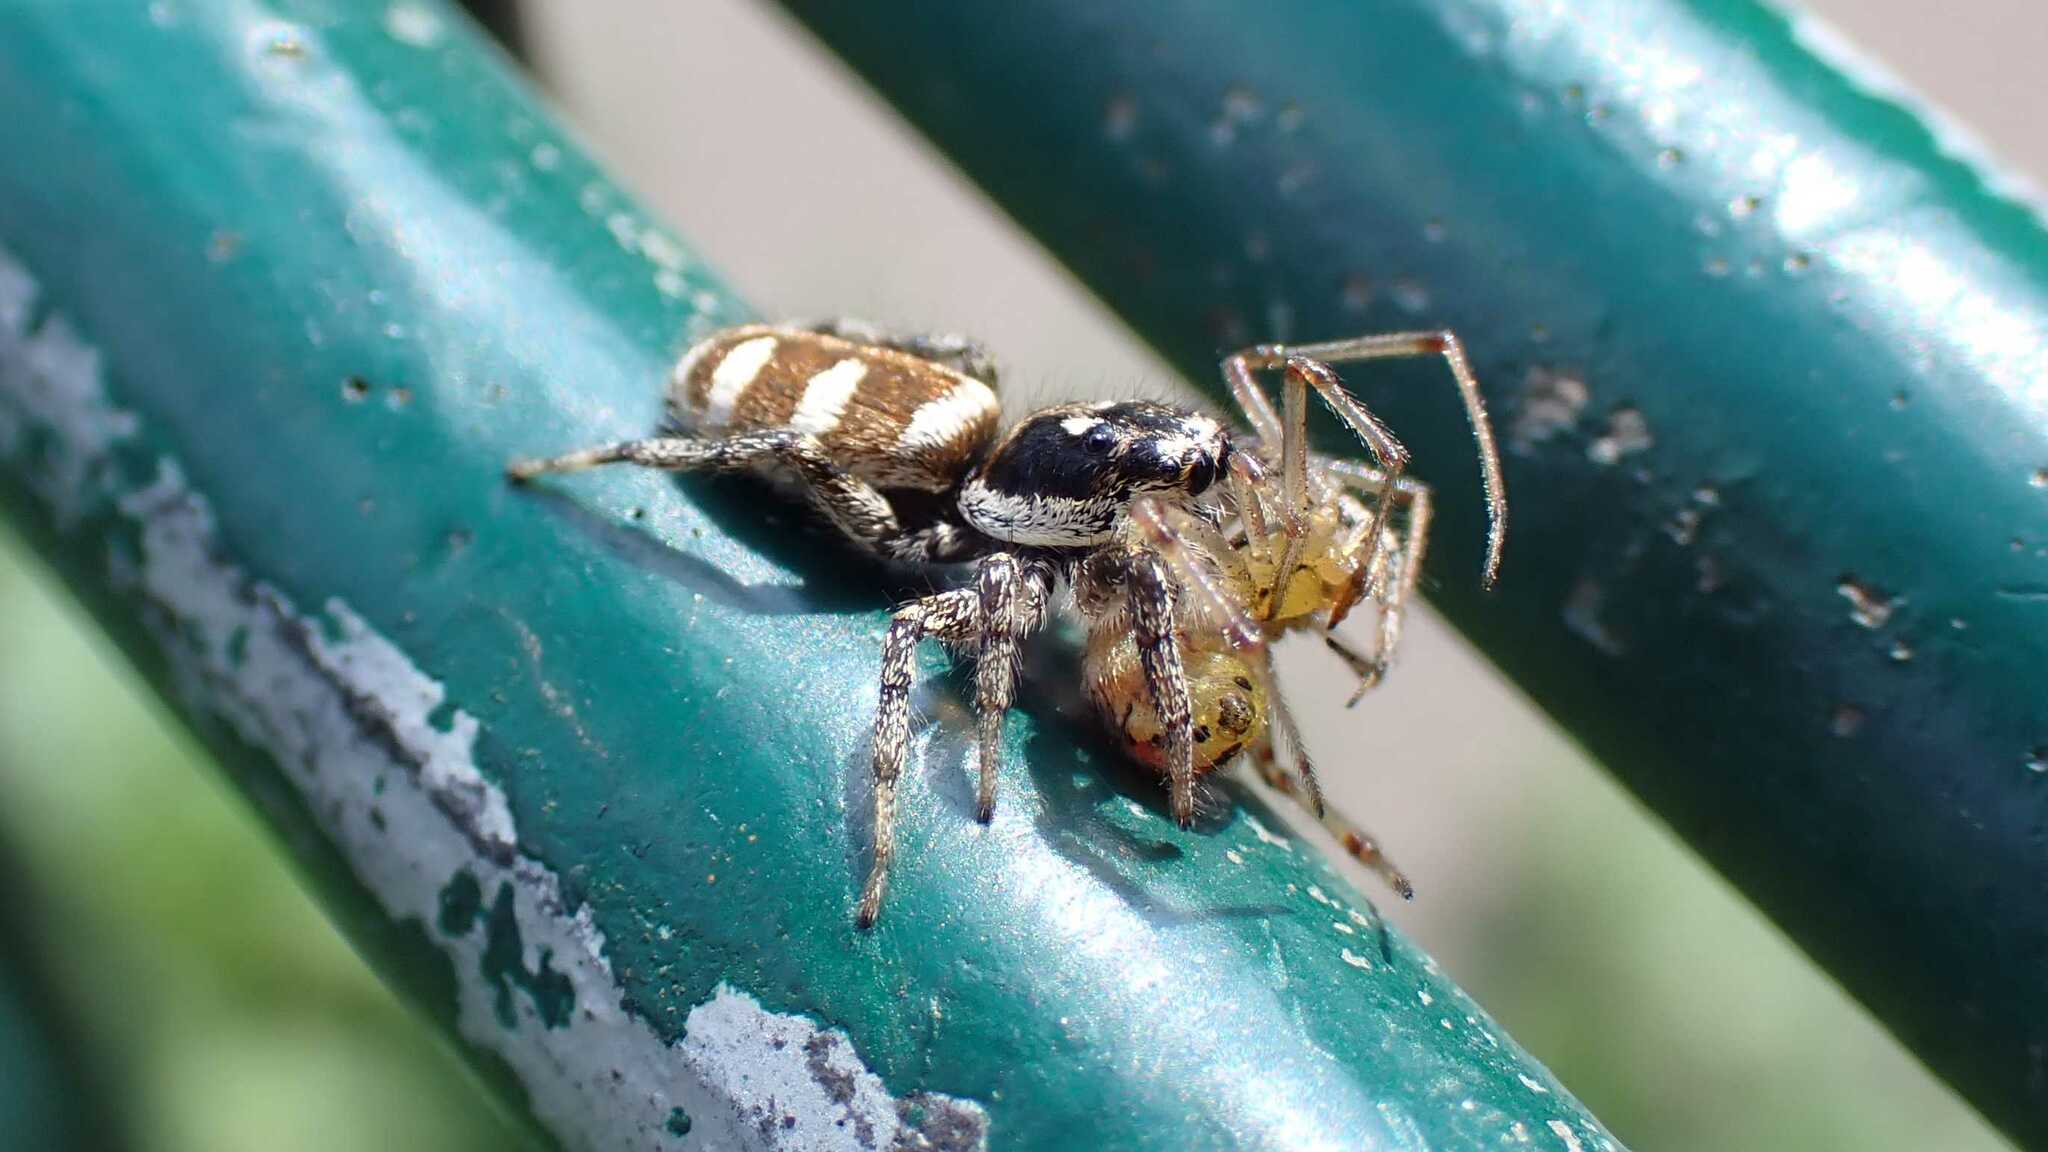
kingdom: Animalia
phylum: Arthropoda
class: Arachnida
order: Araneae
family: Salticidae
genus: Salticus
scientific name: Salticus scenicus
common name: Zebra jumper
